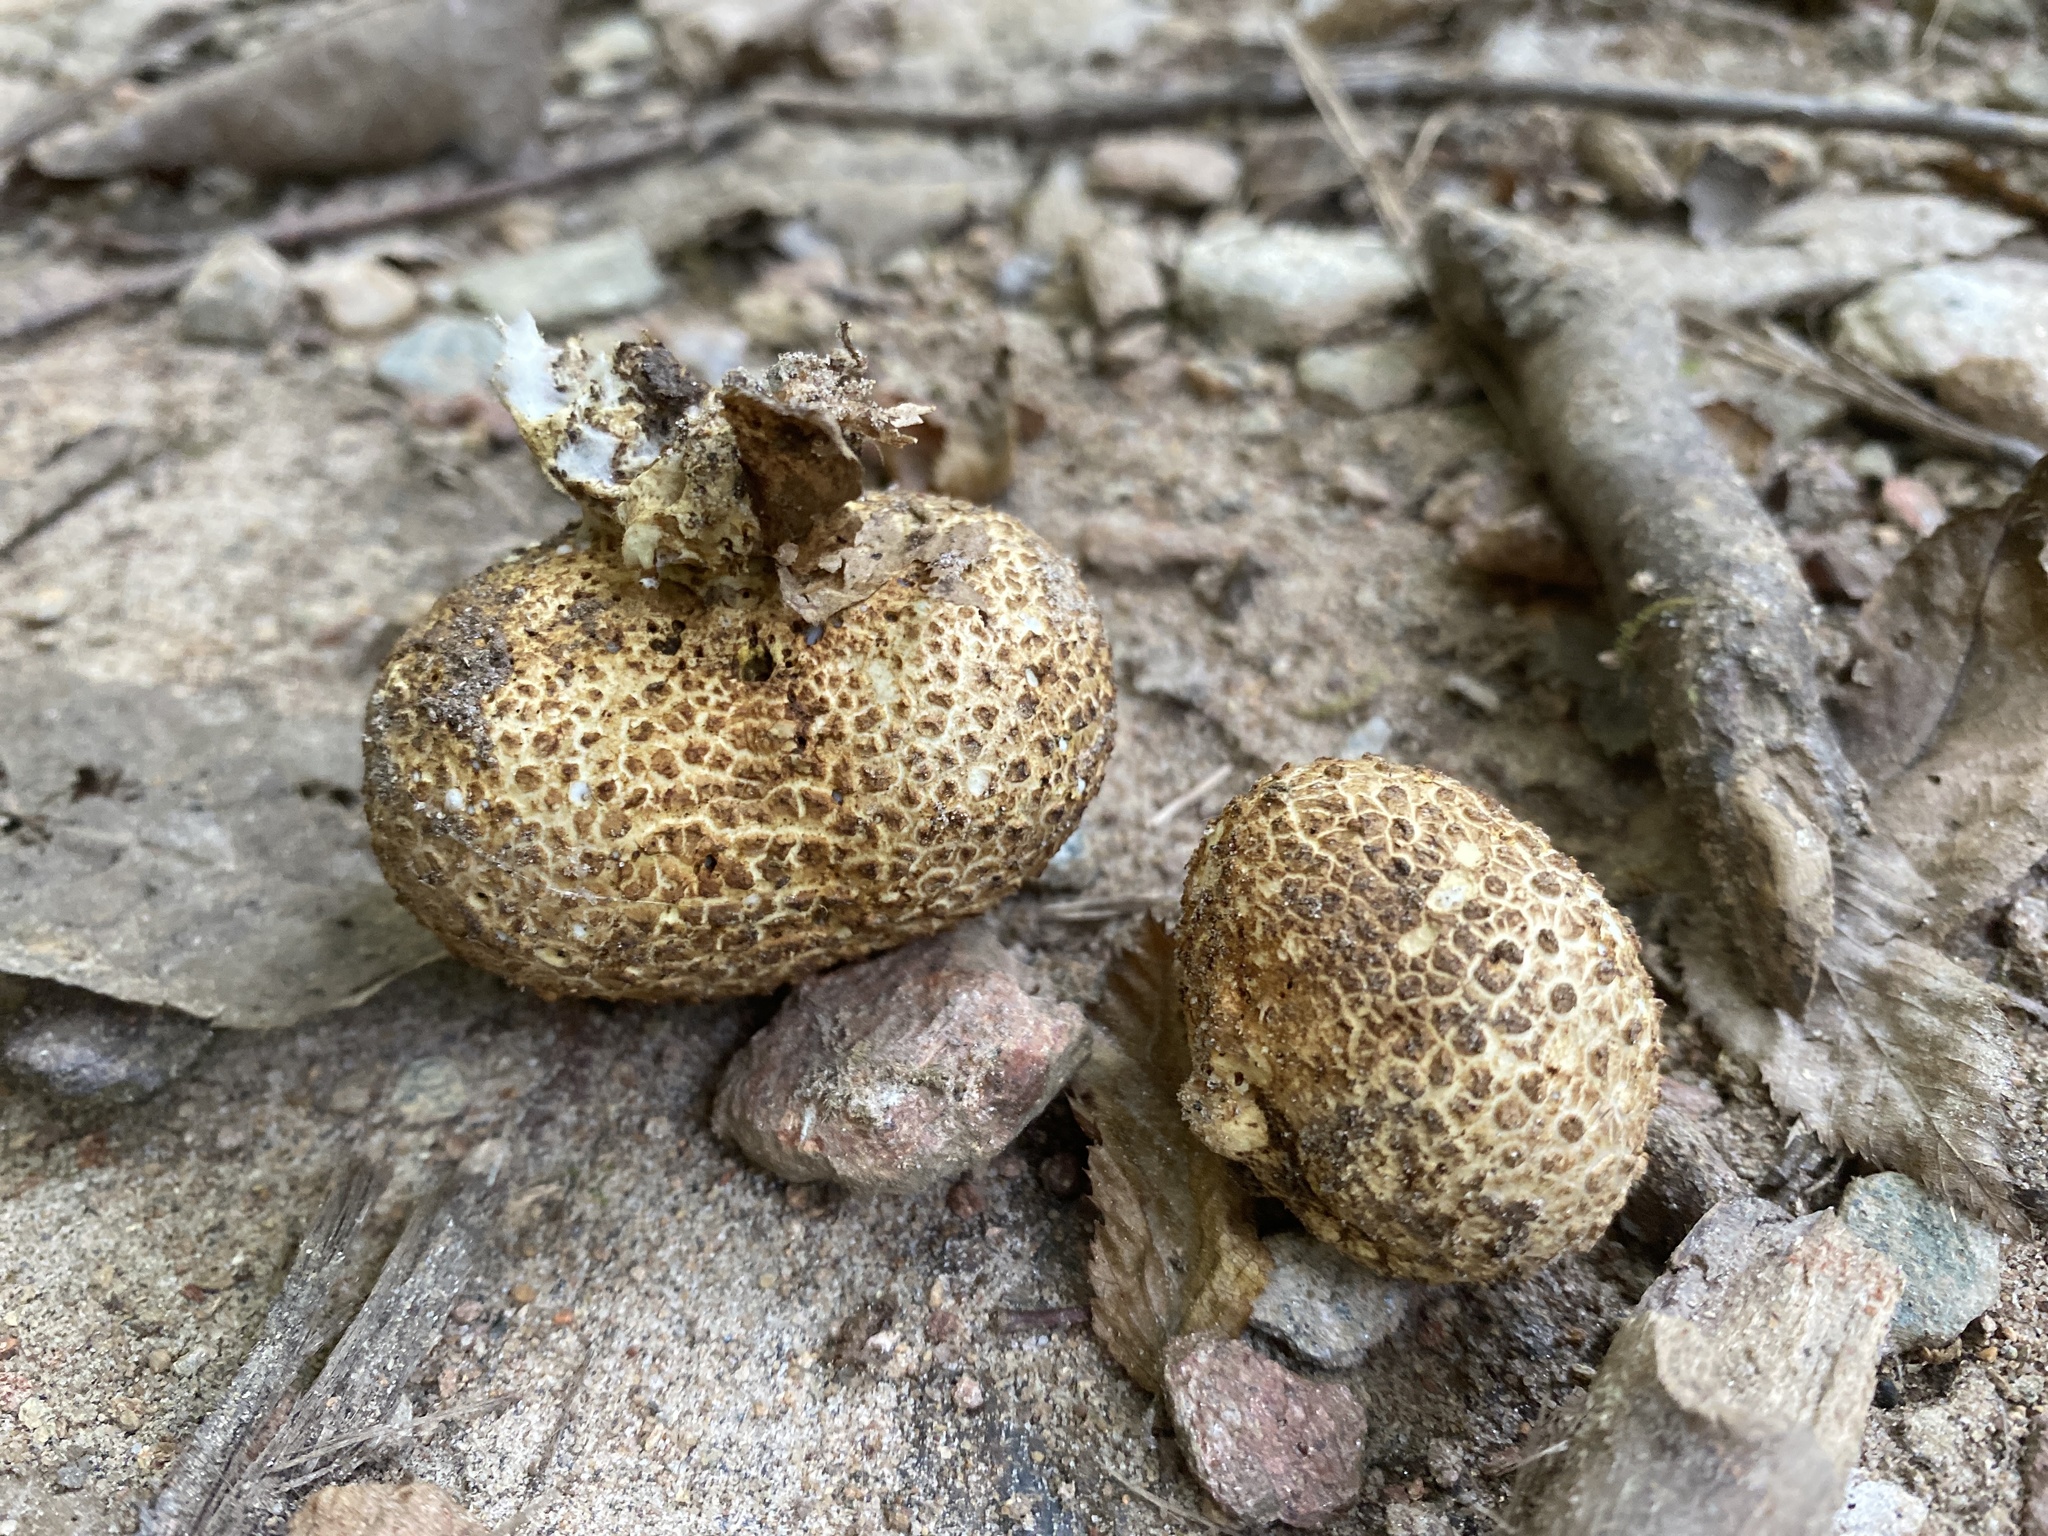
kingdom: Fungi
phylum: Basidiomycota
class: Agaricomycetes
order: Boletales
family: Sclerodermataceae
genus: Scleroderma
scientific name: Scleroderma citrinum
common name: Common earthball
